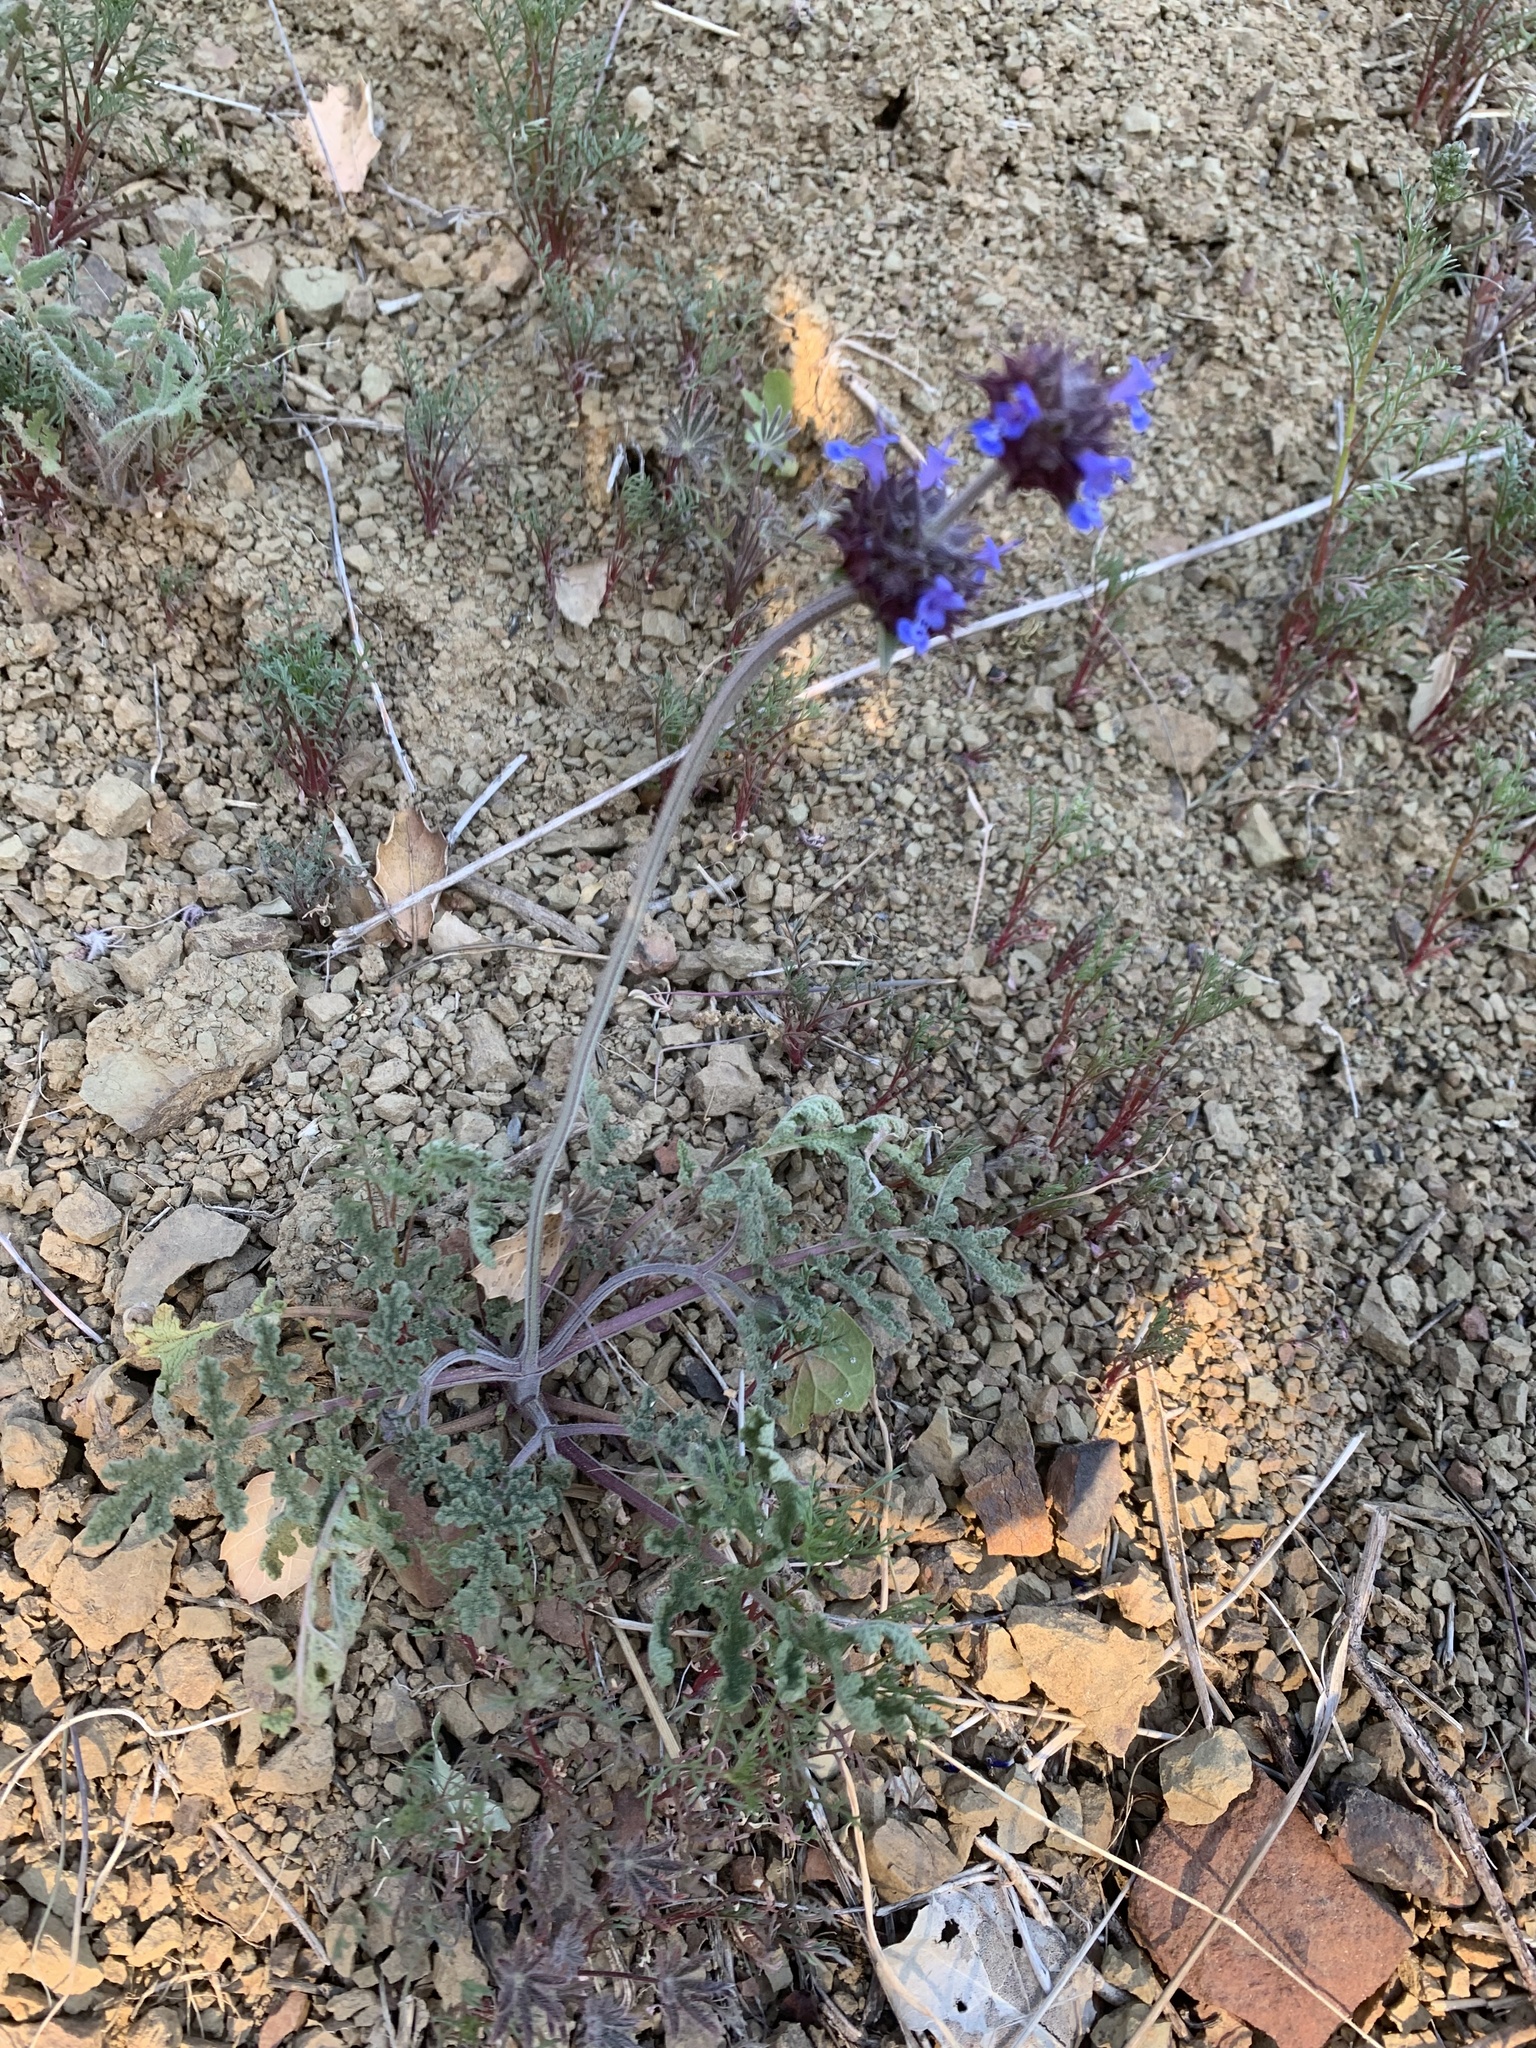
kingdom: Plantae
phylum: Tracheophyta
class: Magnoliopsida
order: Lamiales
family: Lamiaceae
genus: Salvia
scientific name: Salvia columbariae
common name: Chia
